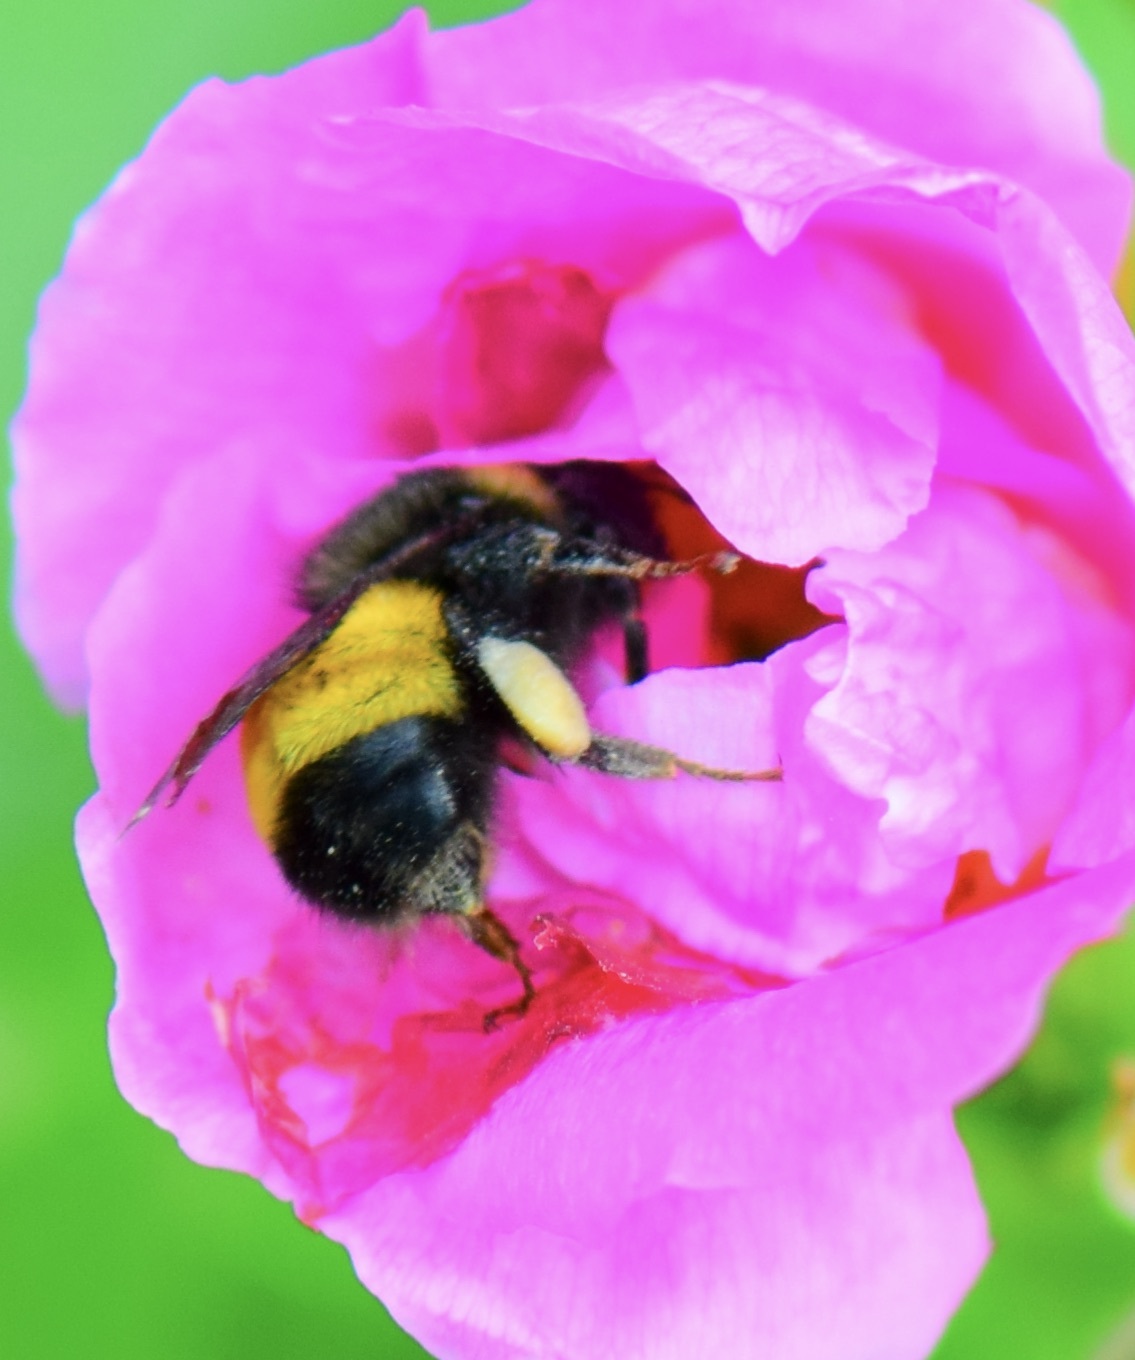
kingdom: Animalia
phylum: Arthropoda
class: Insecta
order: Hymenoptera
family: Apidae
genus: Bombus
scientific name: Bombus terricola
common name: Yellow-banded bumble bee
